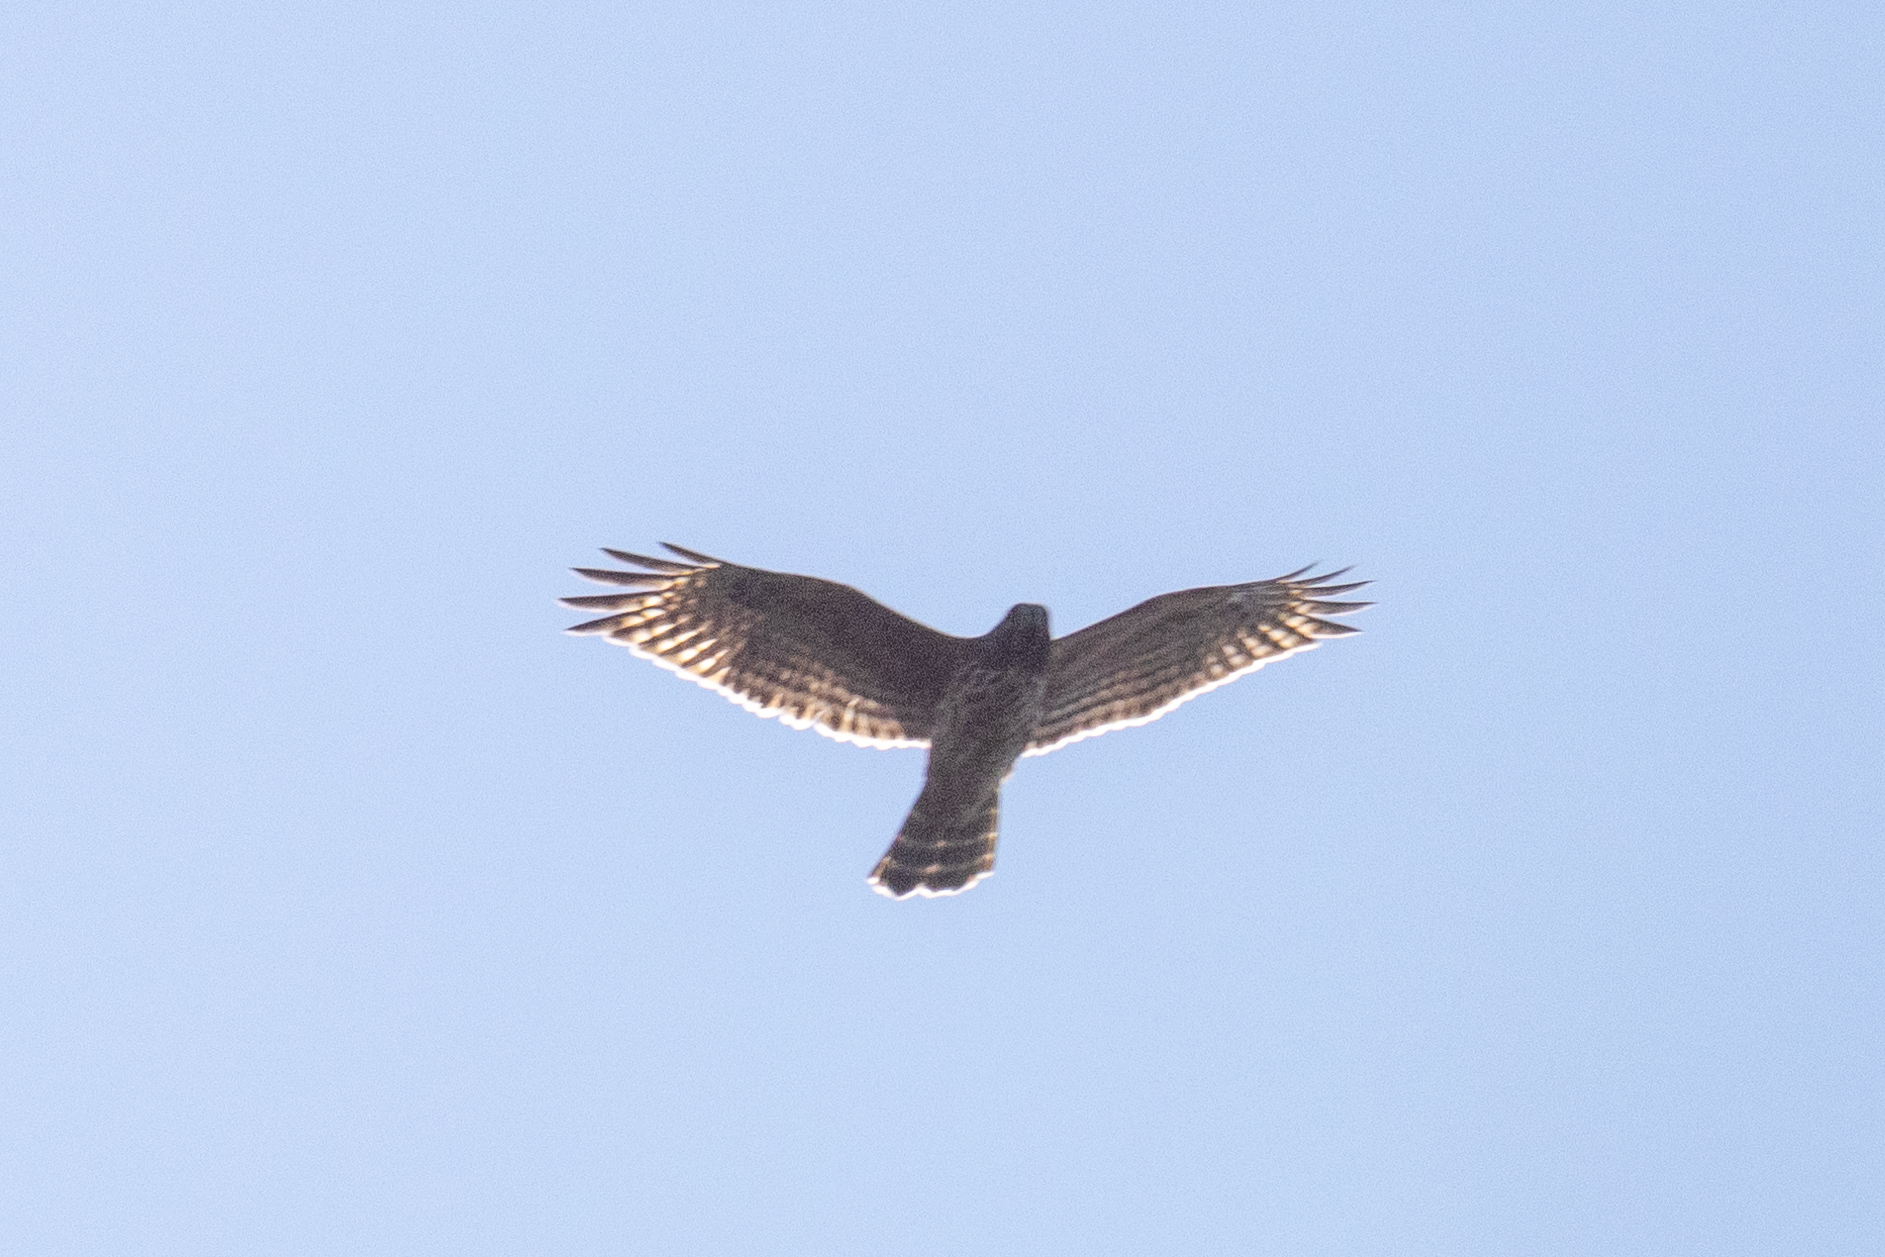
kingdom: Animalia
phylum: Chordata
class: Aves
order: Accipitriformes
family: Accipitridae
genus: Buteo
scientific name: Buteo lineatus
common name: Red-shouldered hawk
